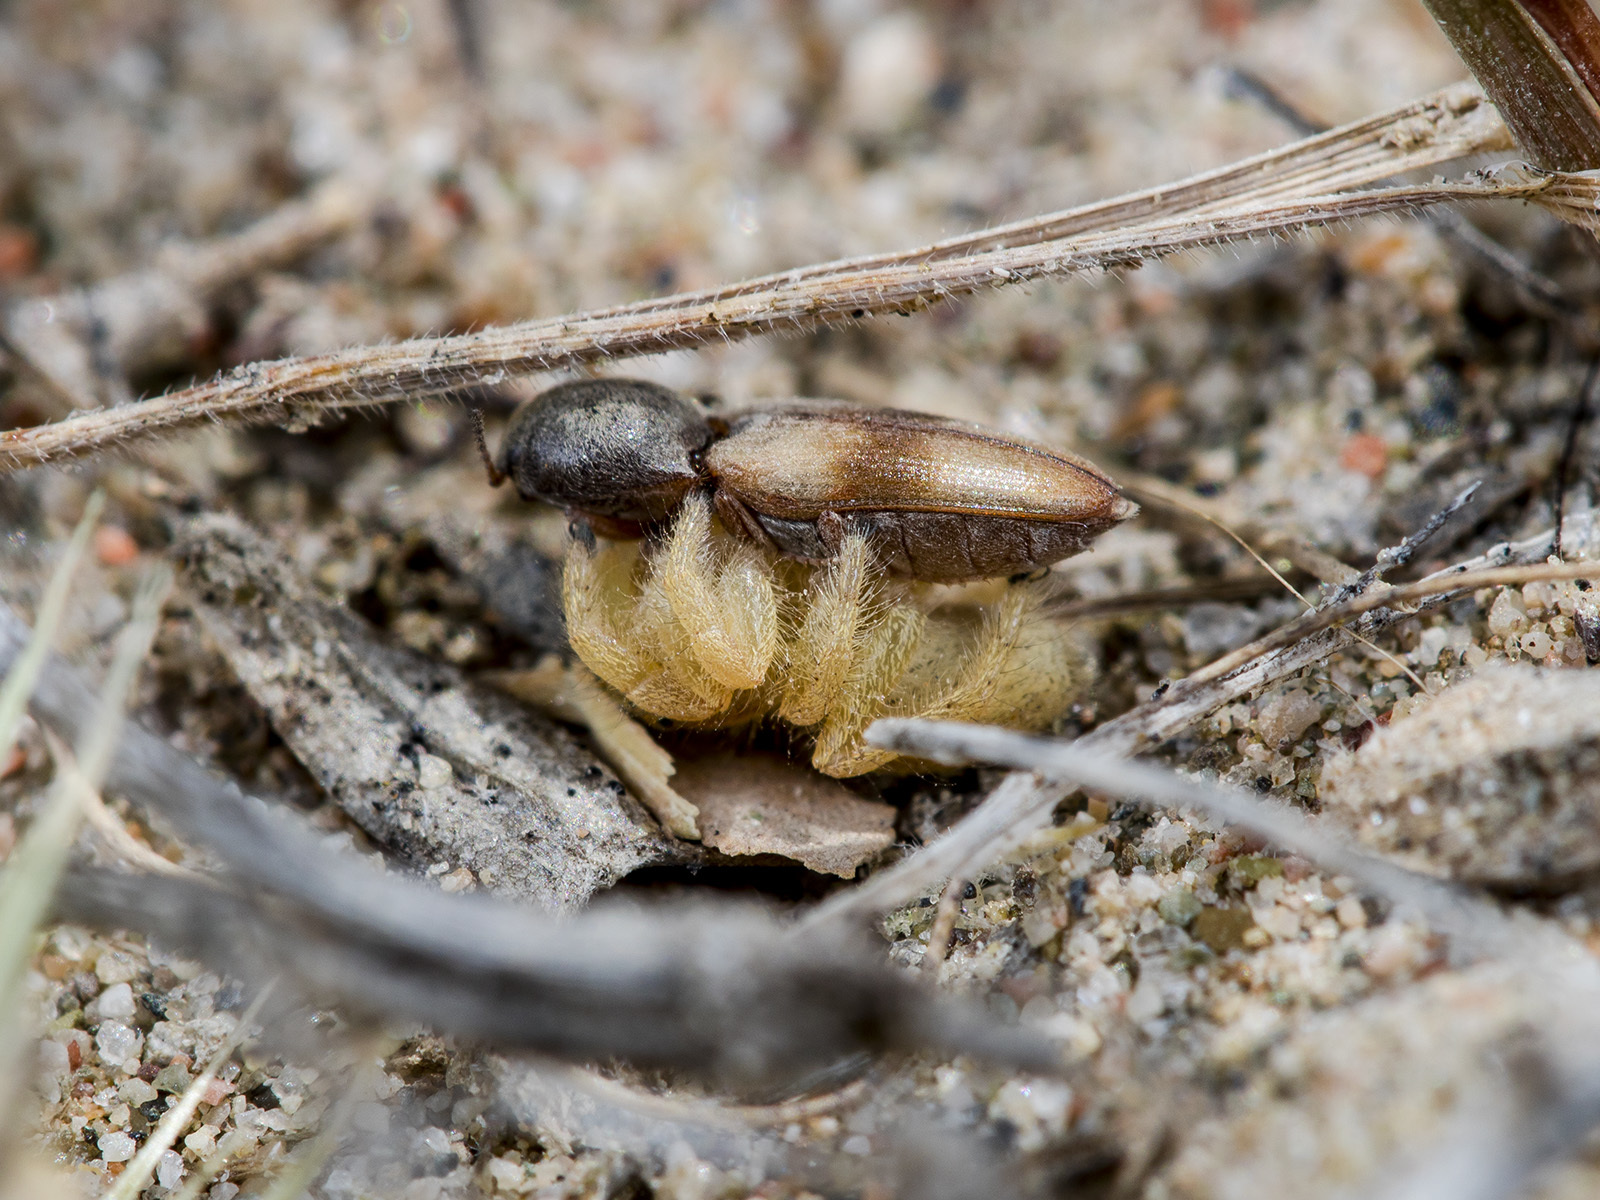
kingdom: Animalia
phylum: Arthropoda
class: Arachnida
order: Araneae
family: Salticidae
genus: Pseudomogrus
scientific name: Pseudomogrus zhilgaensis
